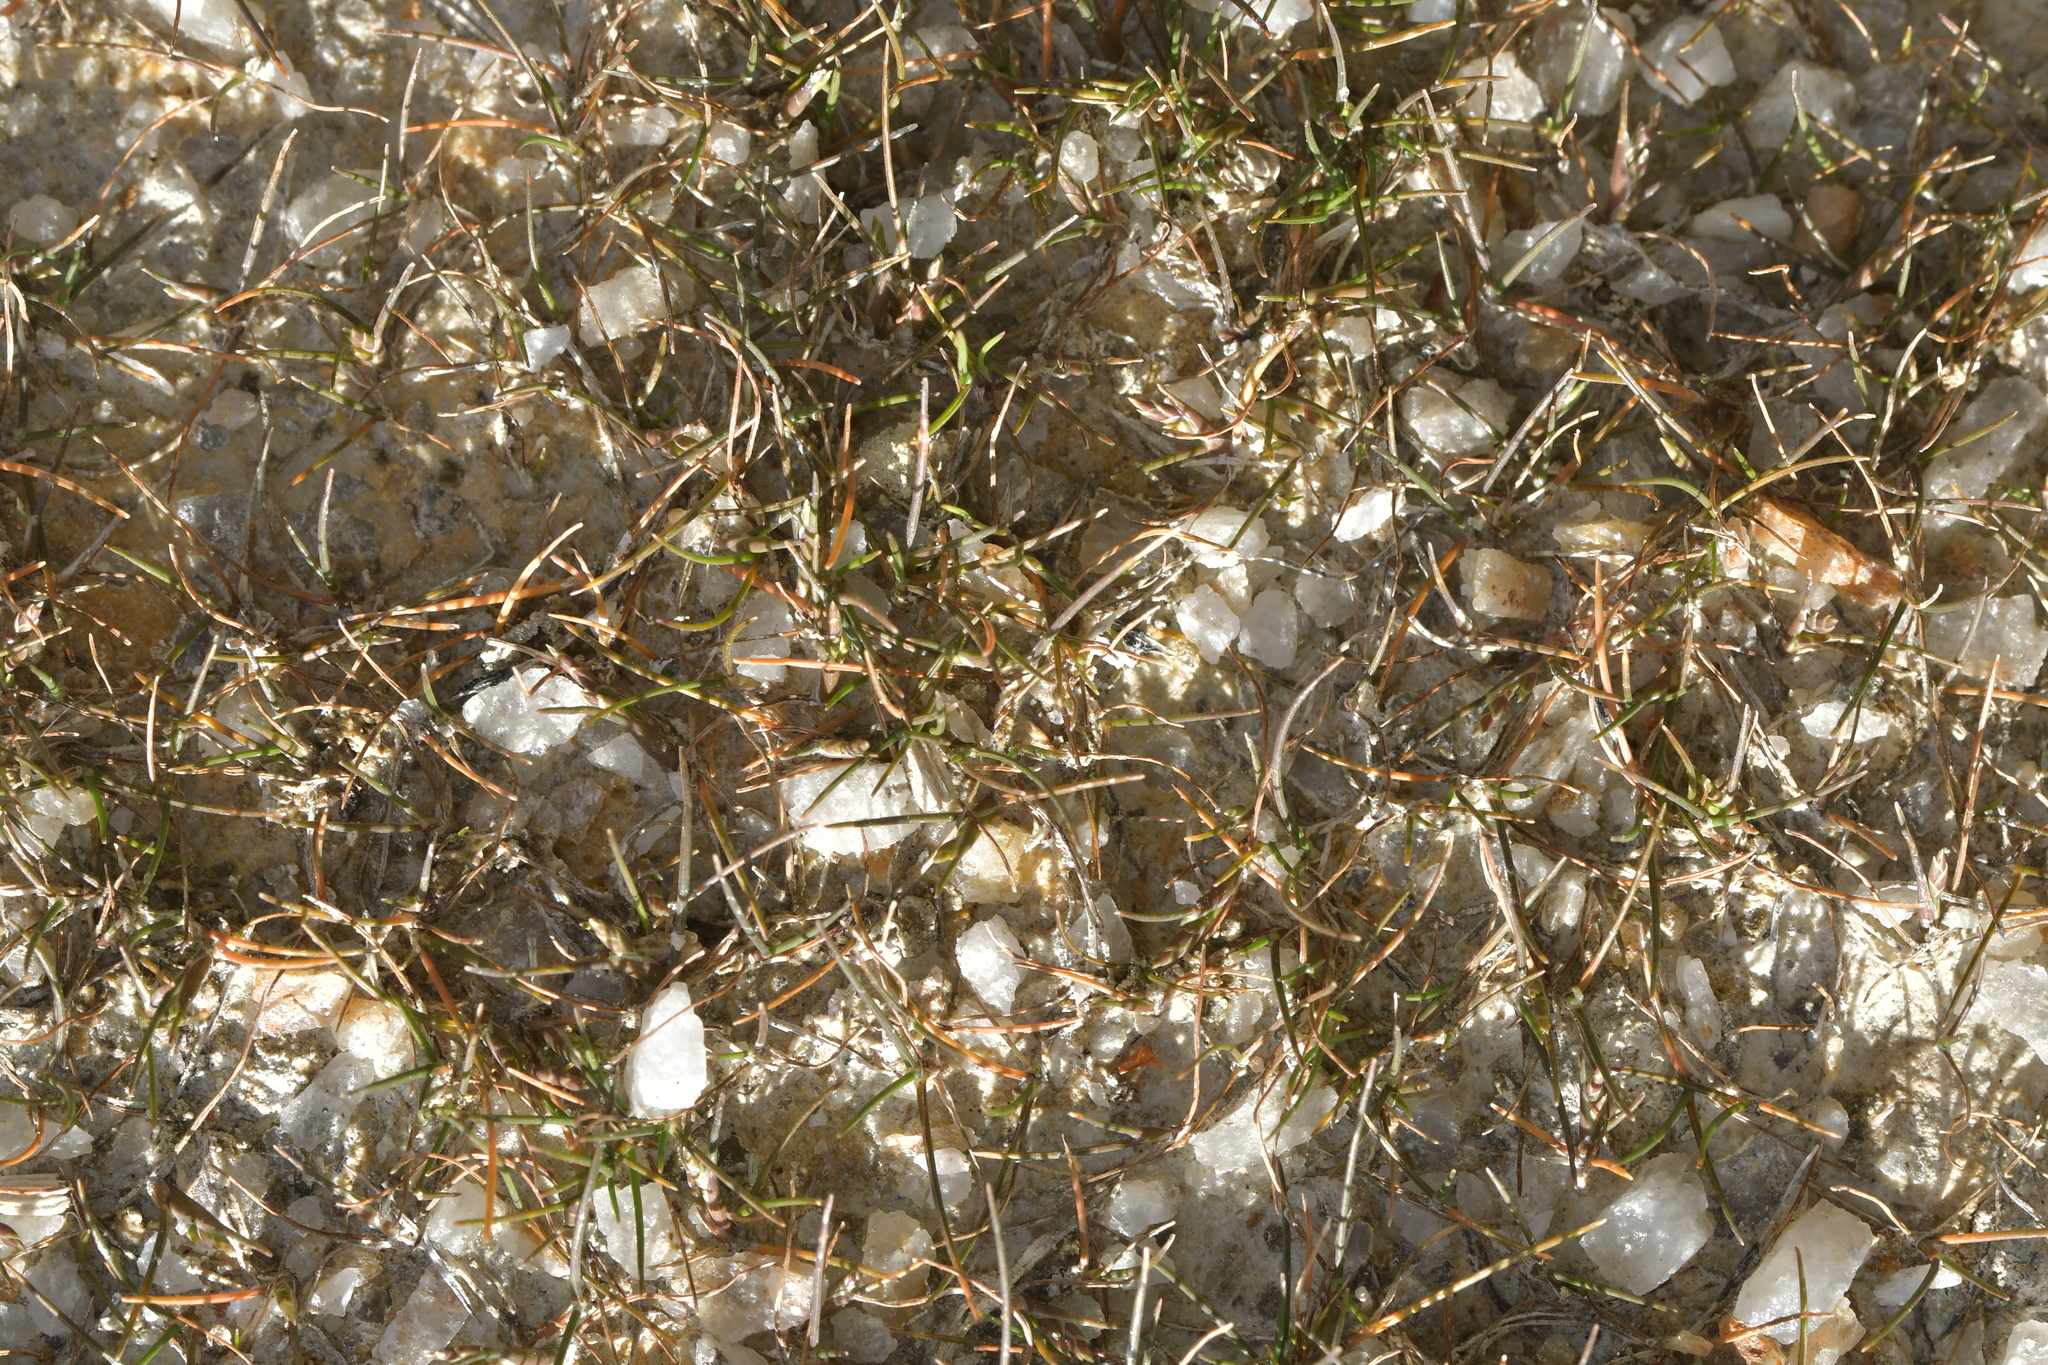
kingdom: Plantae
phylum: Tracheophyta
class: Liliopsida
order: Poales
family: Poaceae
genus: Puccinellia
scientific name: Puccinellia raroflorens
